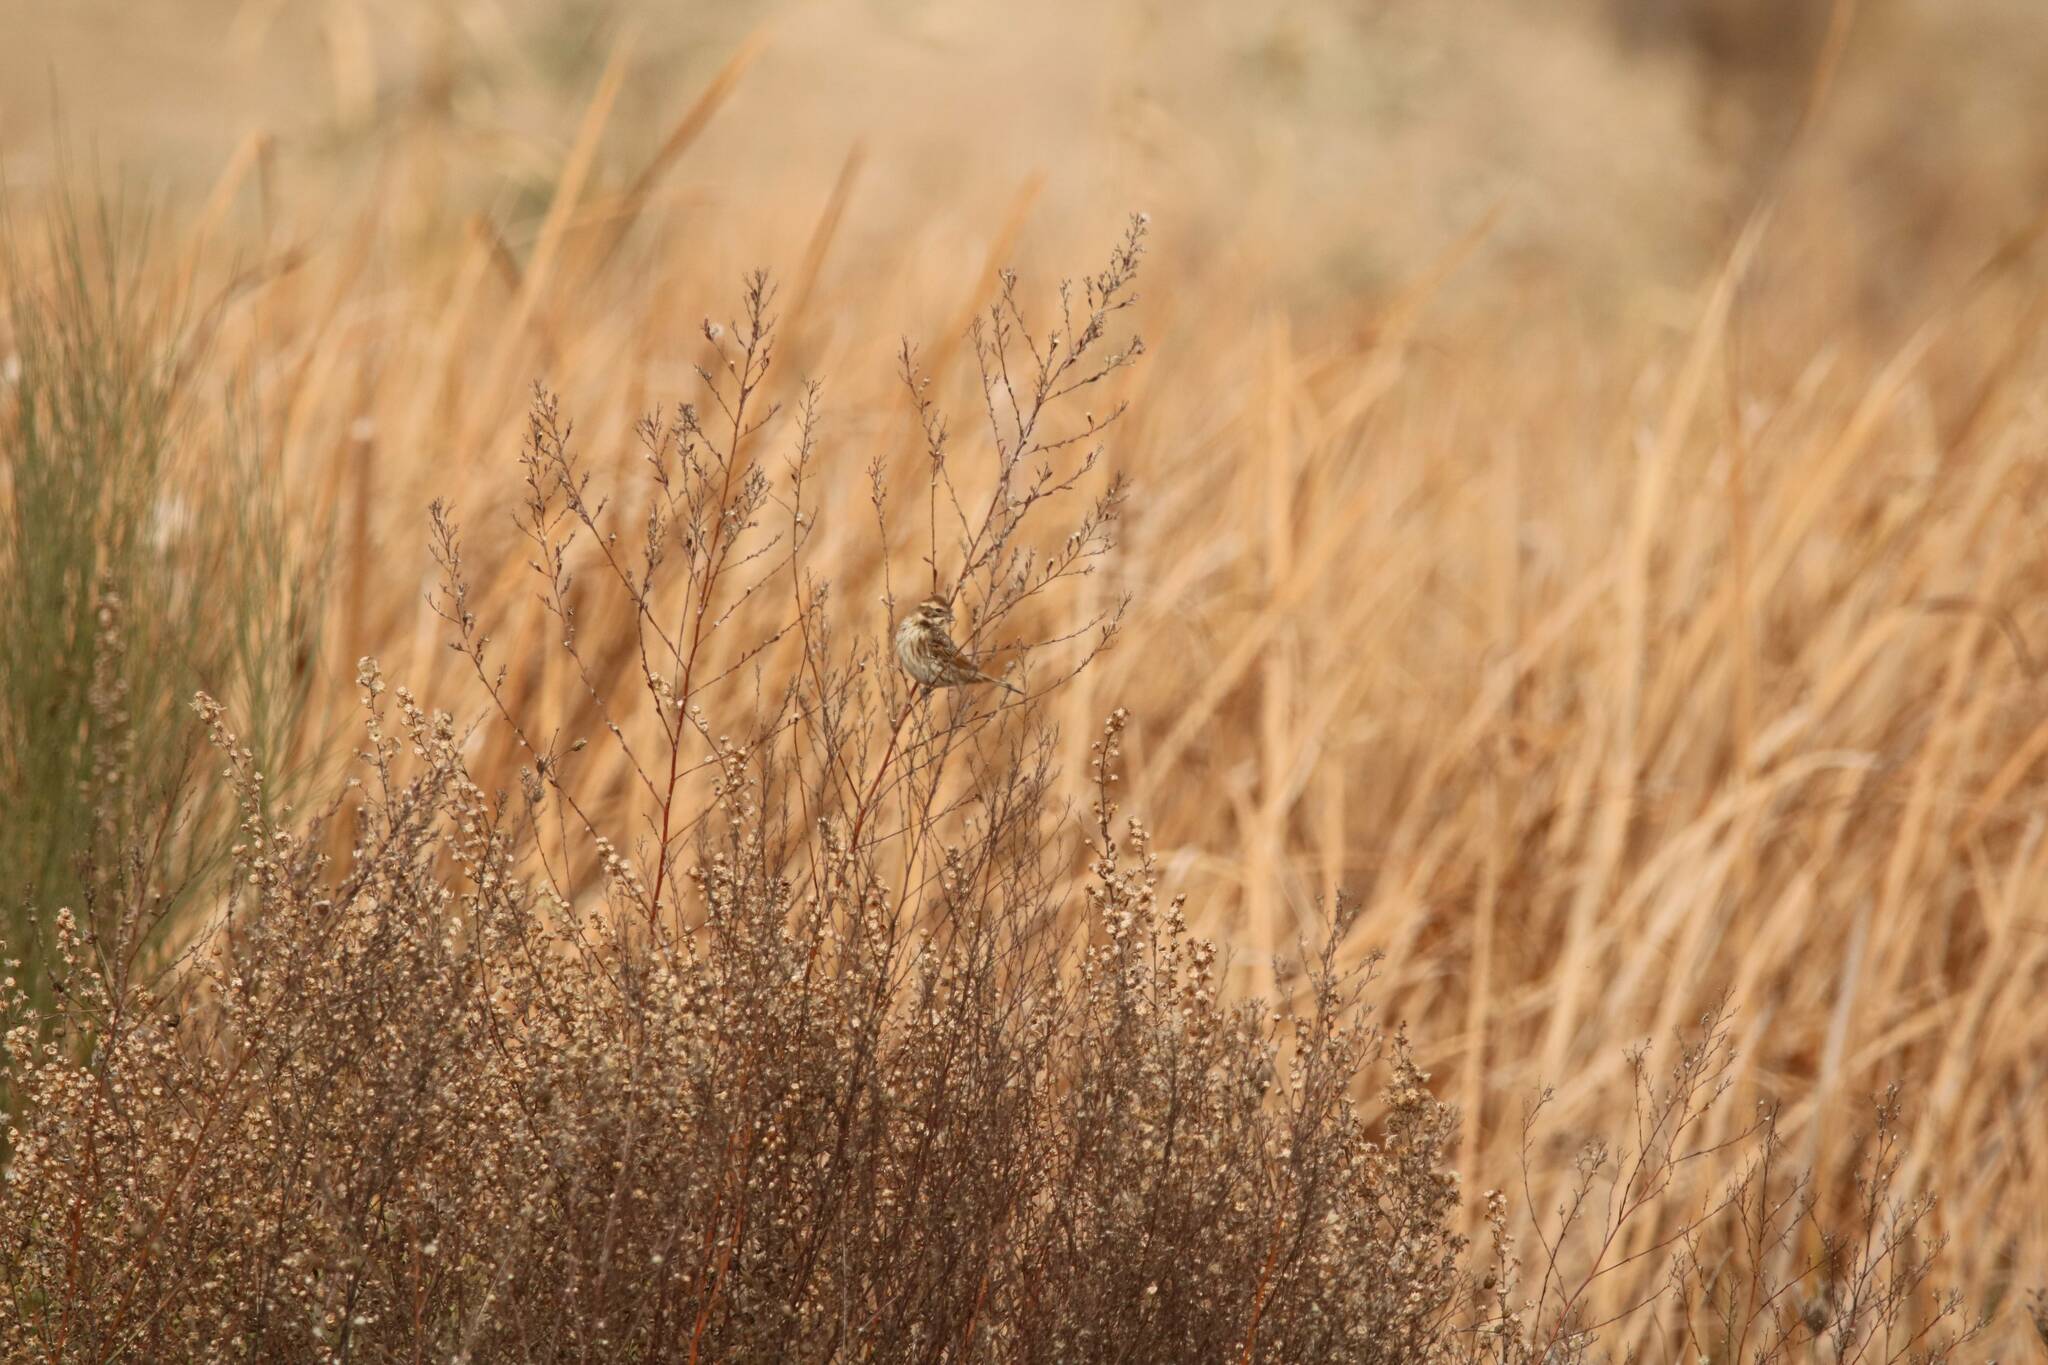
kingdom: Animalia
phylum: Chordata
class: Aves
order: Passeriformes
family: Emberizidae
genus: Emberiza
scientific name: Emberiza schoeniclus
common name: Reed bunting
